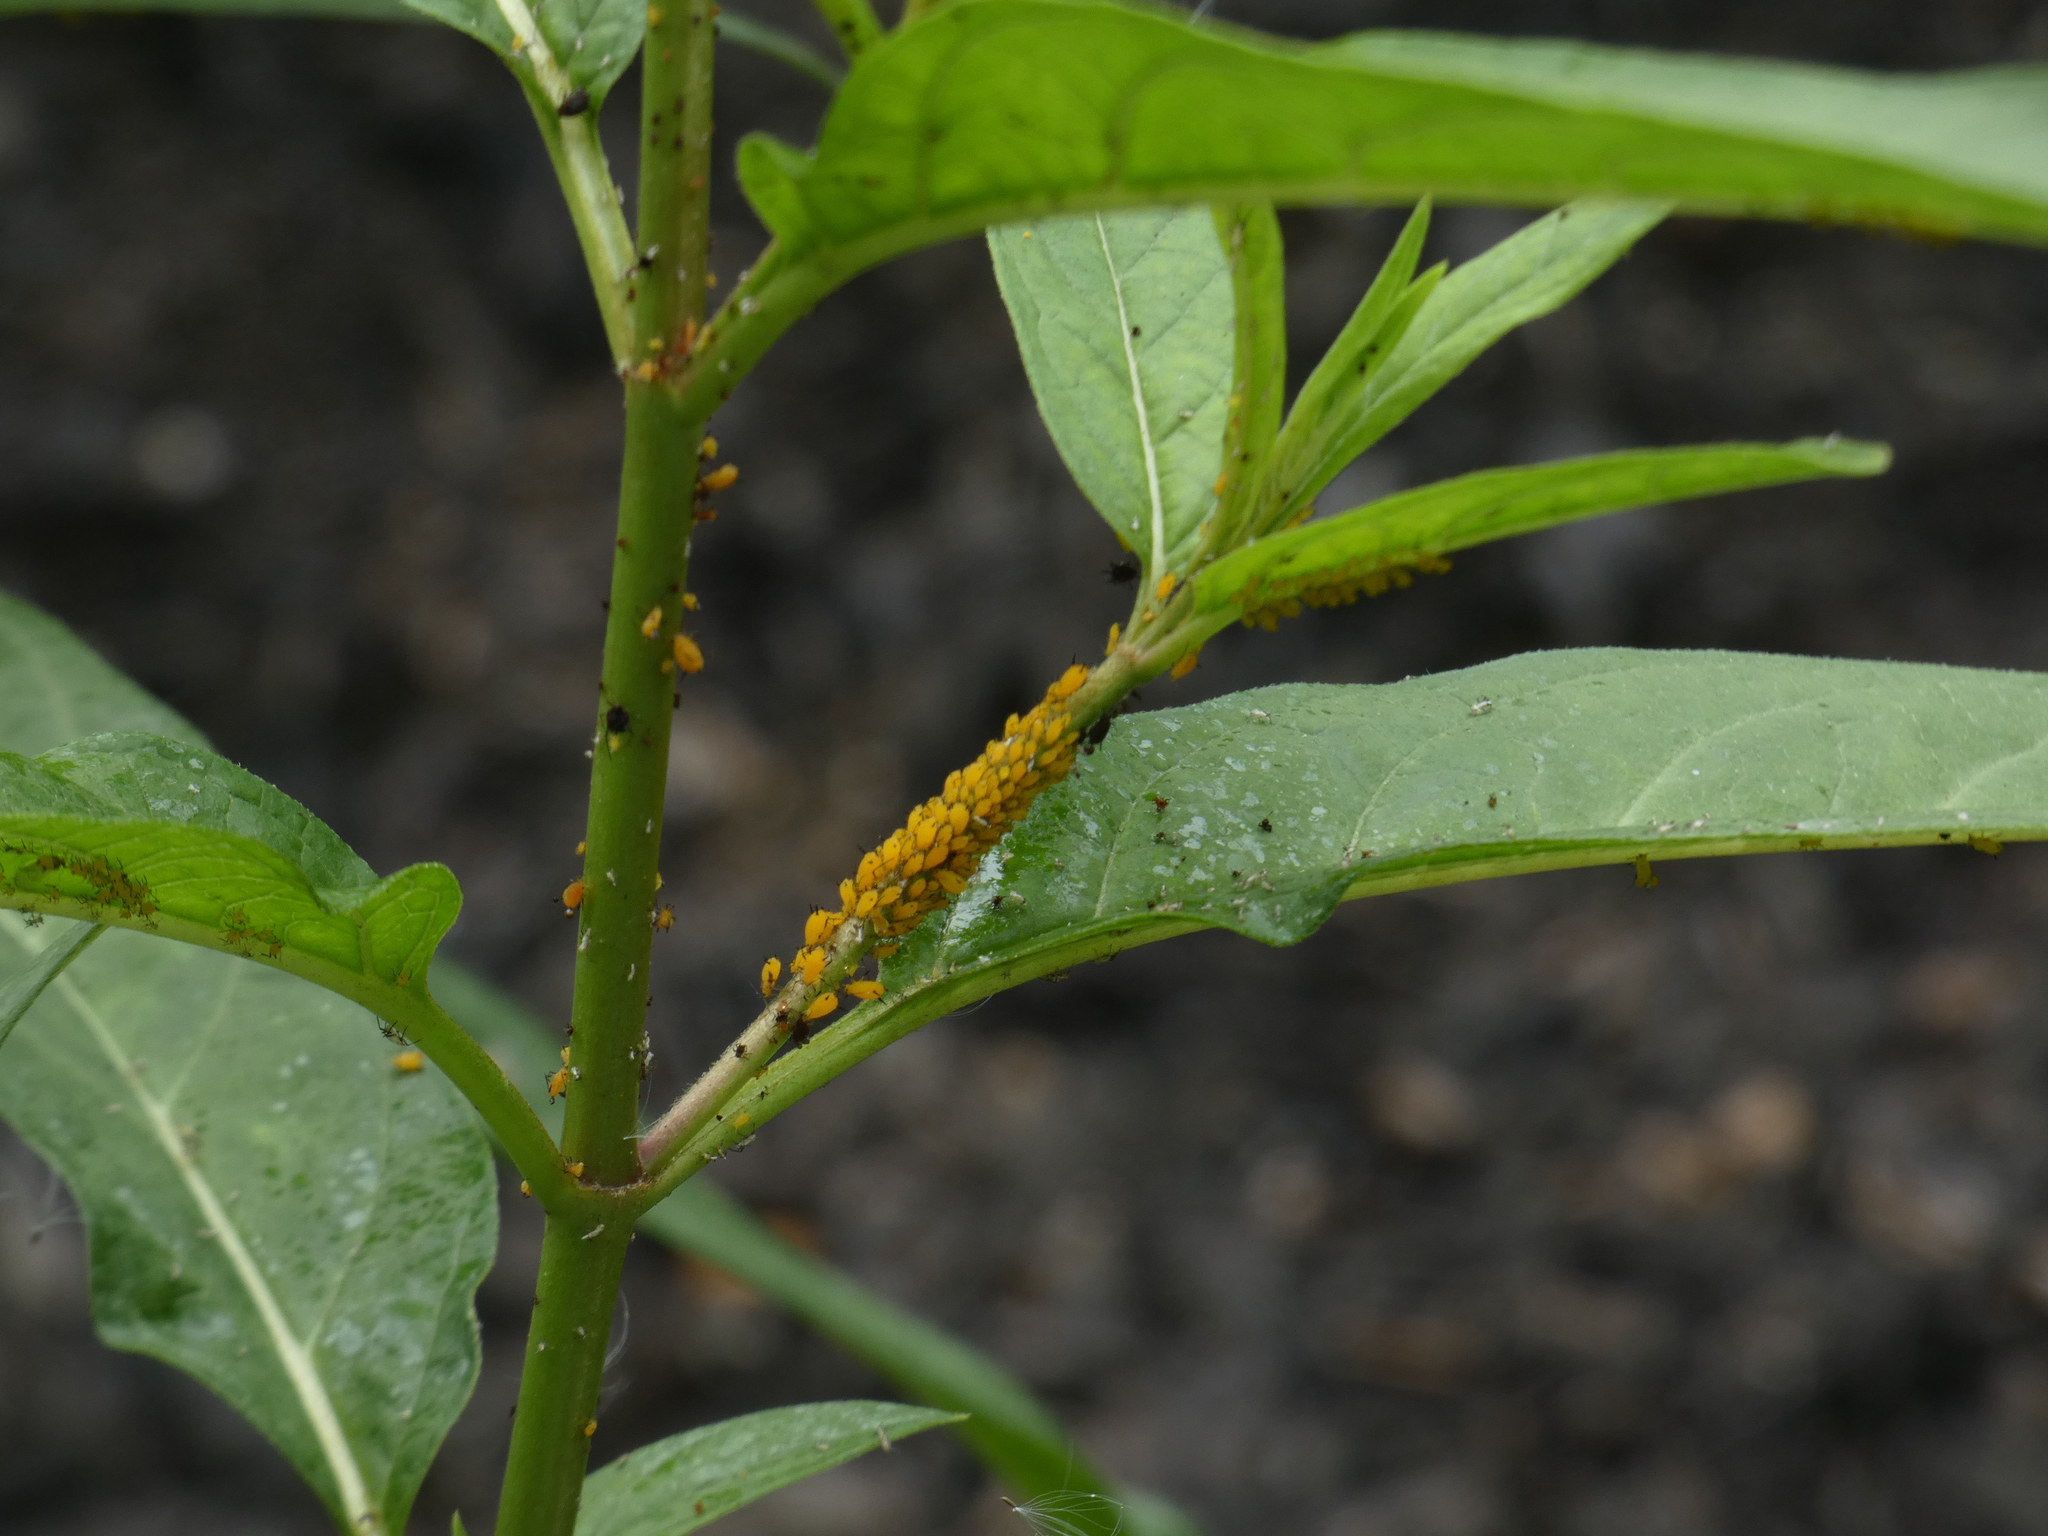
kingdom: Animalia
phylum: Arthropoda
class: Insecta
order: Hemiptera
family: Aphididae
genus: Aphis
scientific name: Aphis nerii
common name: Oleander aphid
